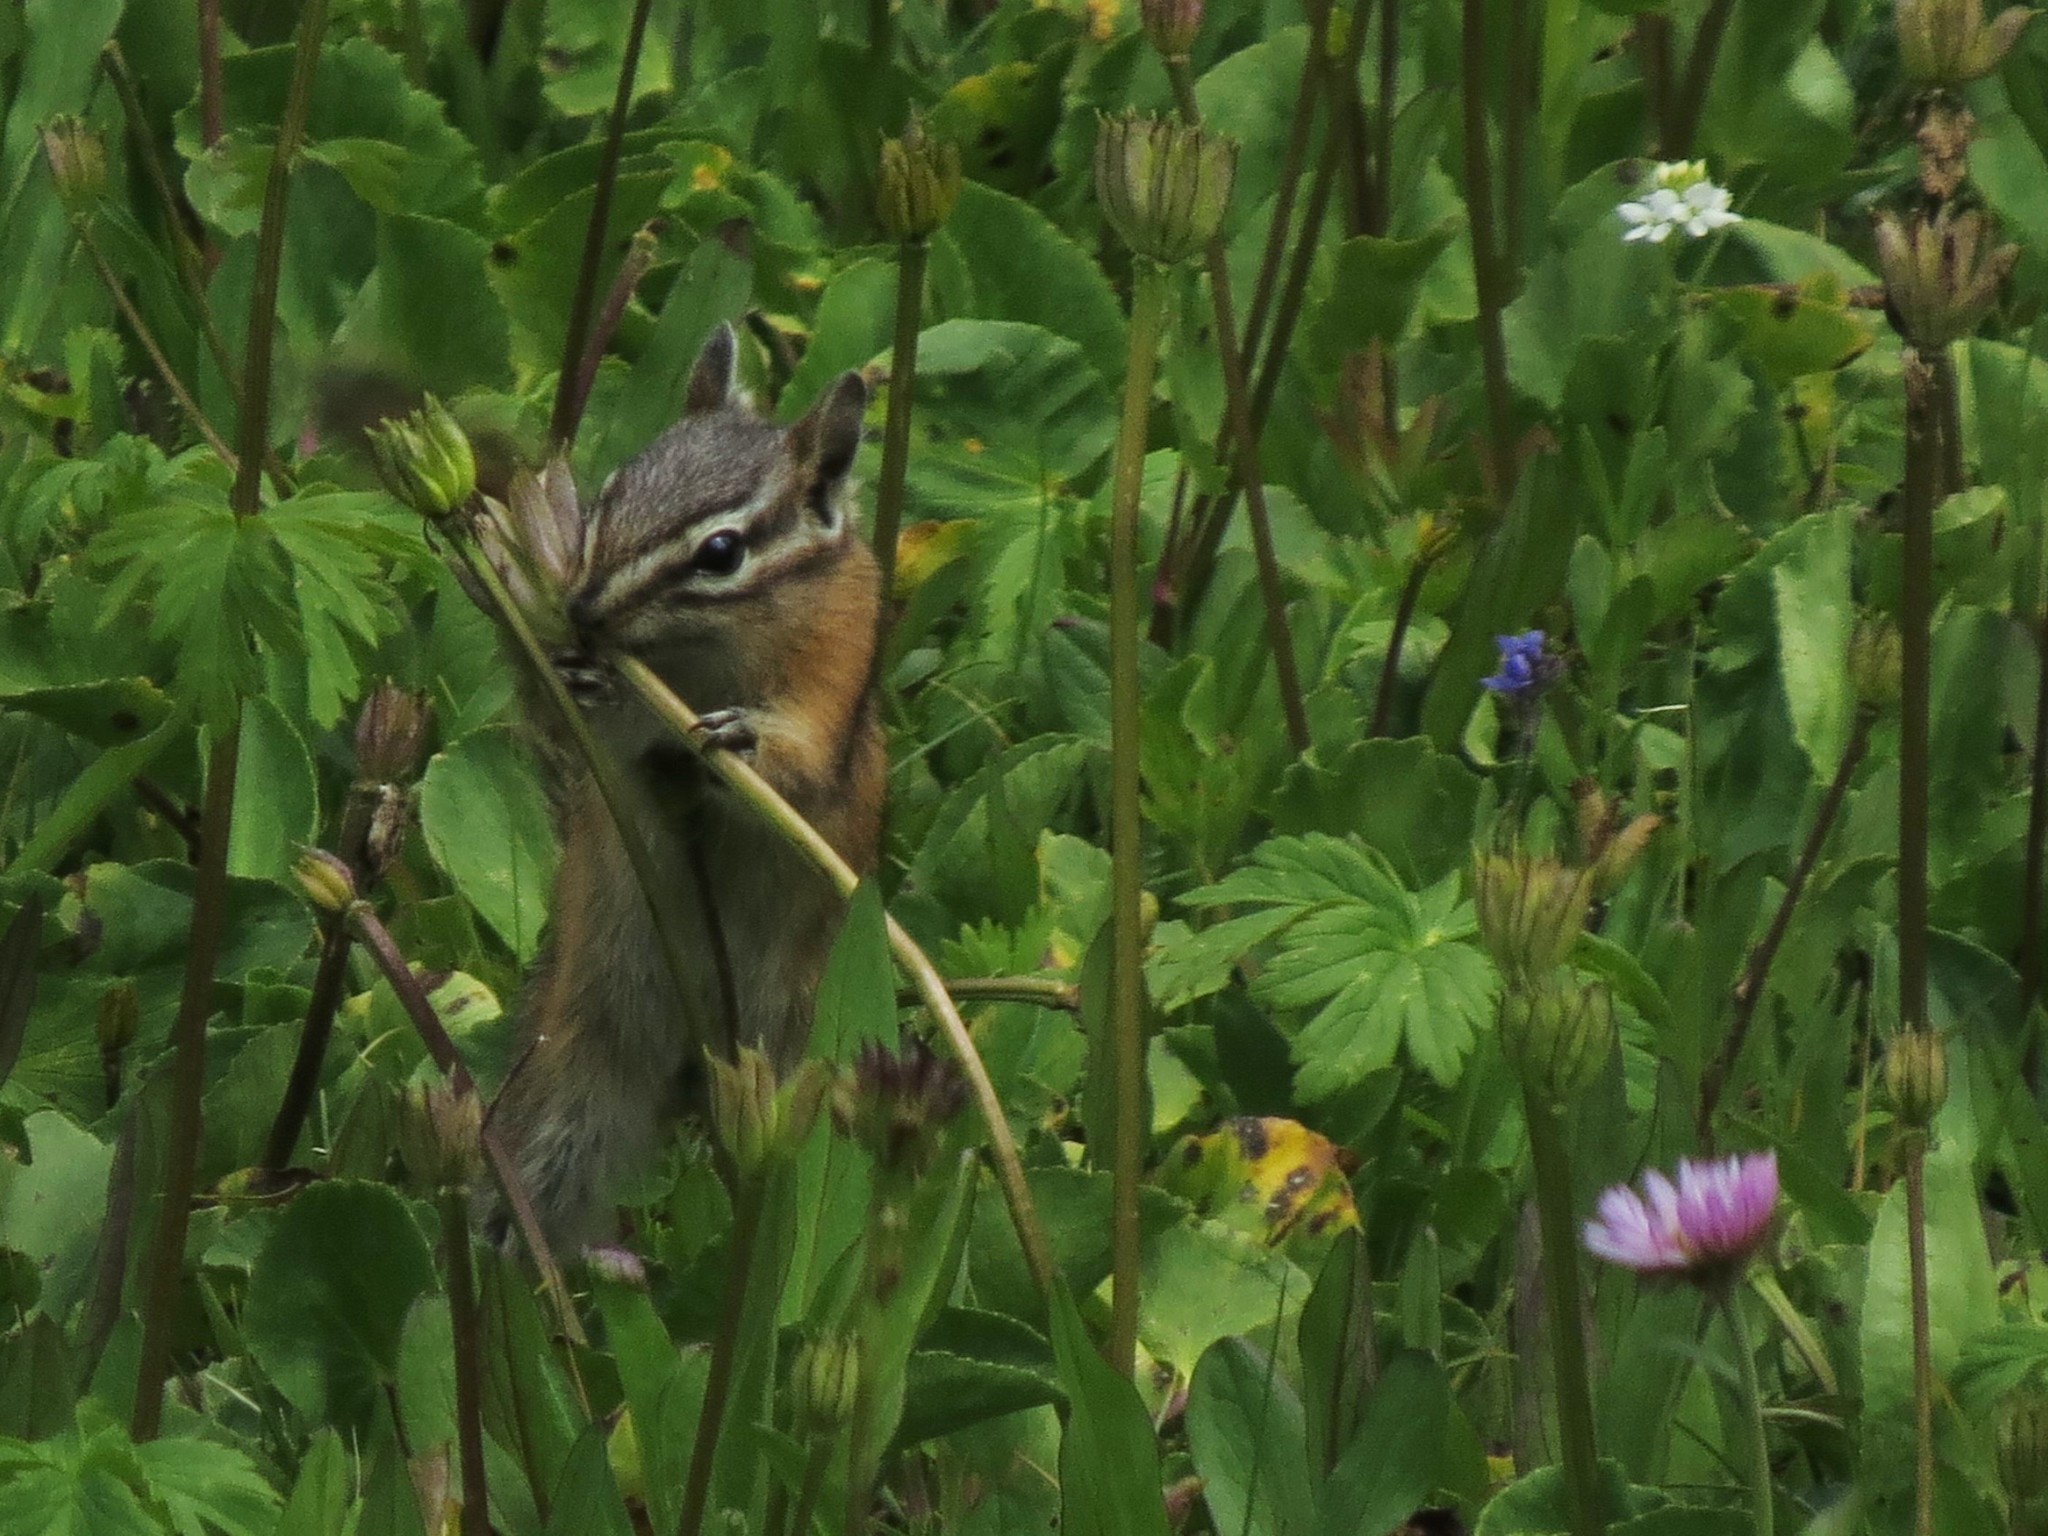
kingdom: Animalia
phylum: Chordata
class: Mammalia
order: Rodentia
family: Sciuridae
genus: Neotamias
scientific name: Neotamias
